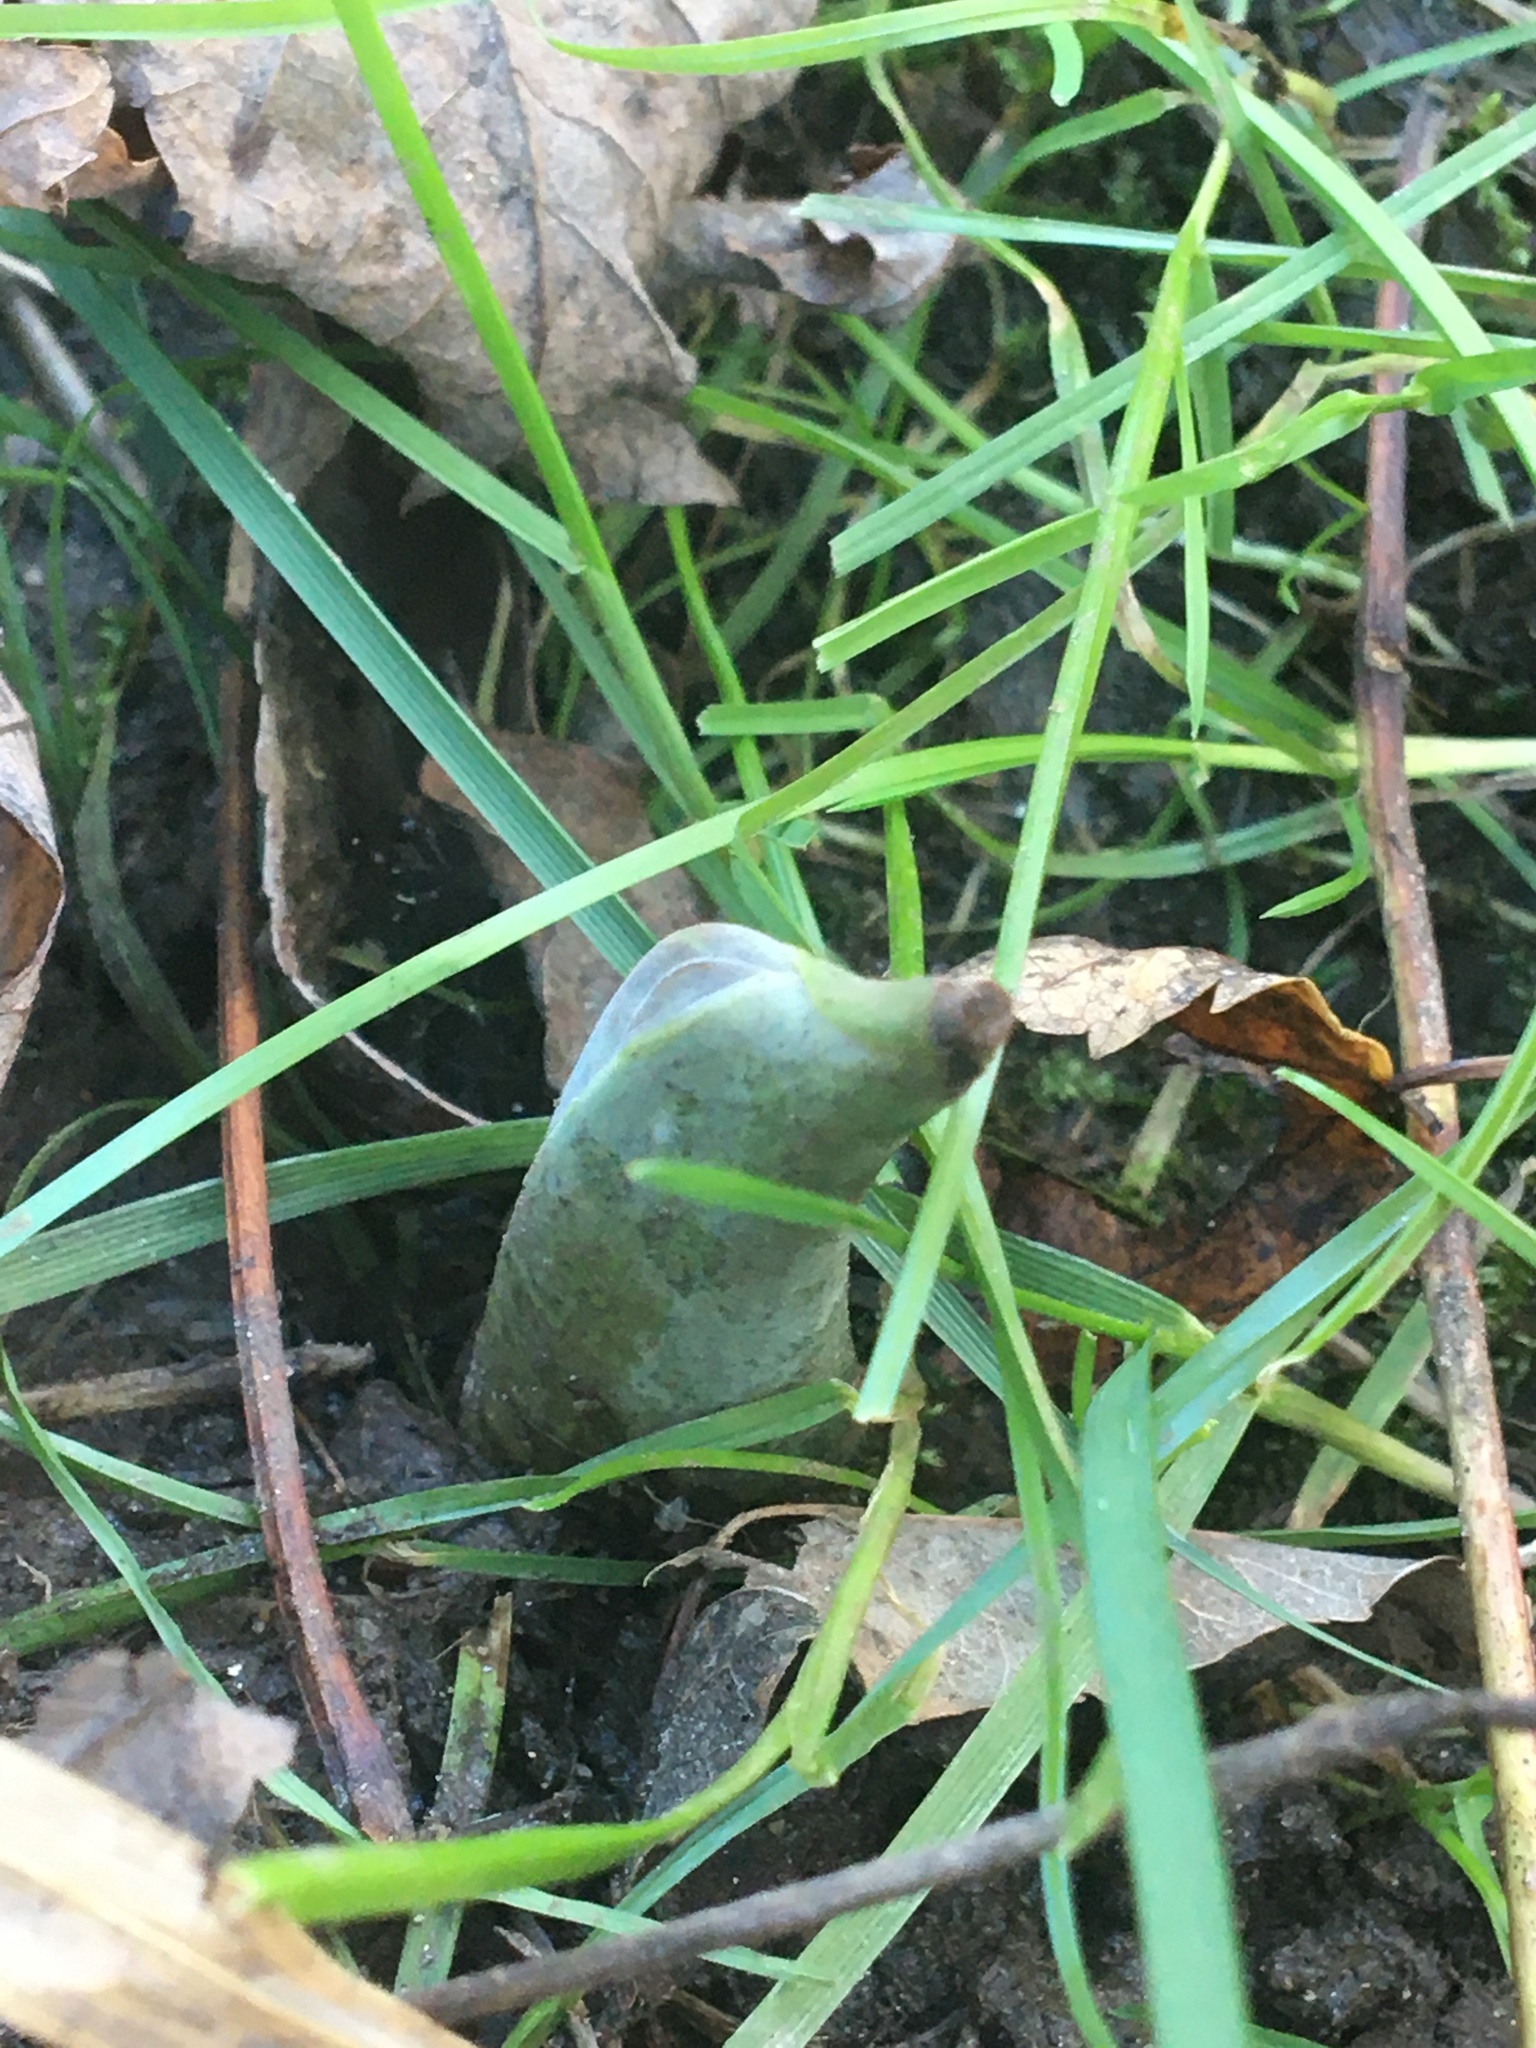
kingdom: Plantae
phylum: Tracheophyta
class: Liliopsida
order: Alismatales
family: Araceae
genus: Symplocarpus
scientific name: Symplocarpus foetidus
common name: Eastern skunk cabbage
